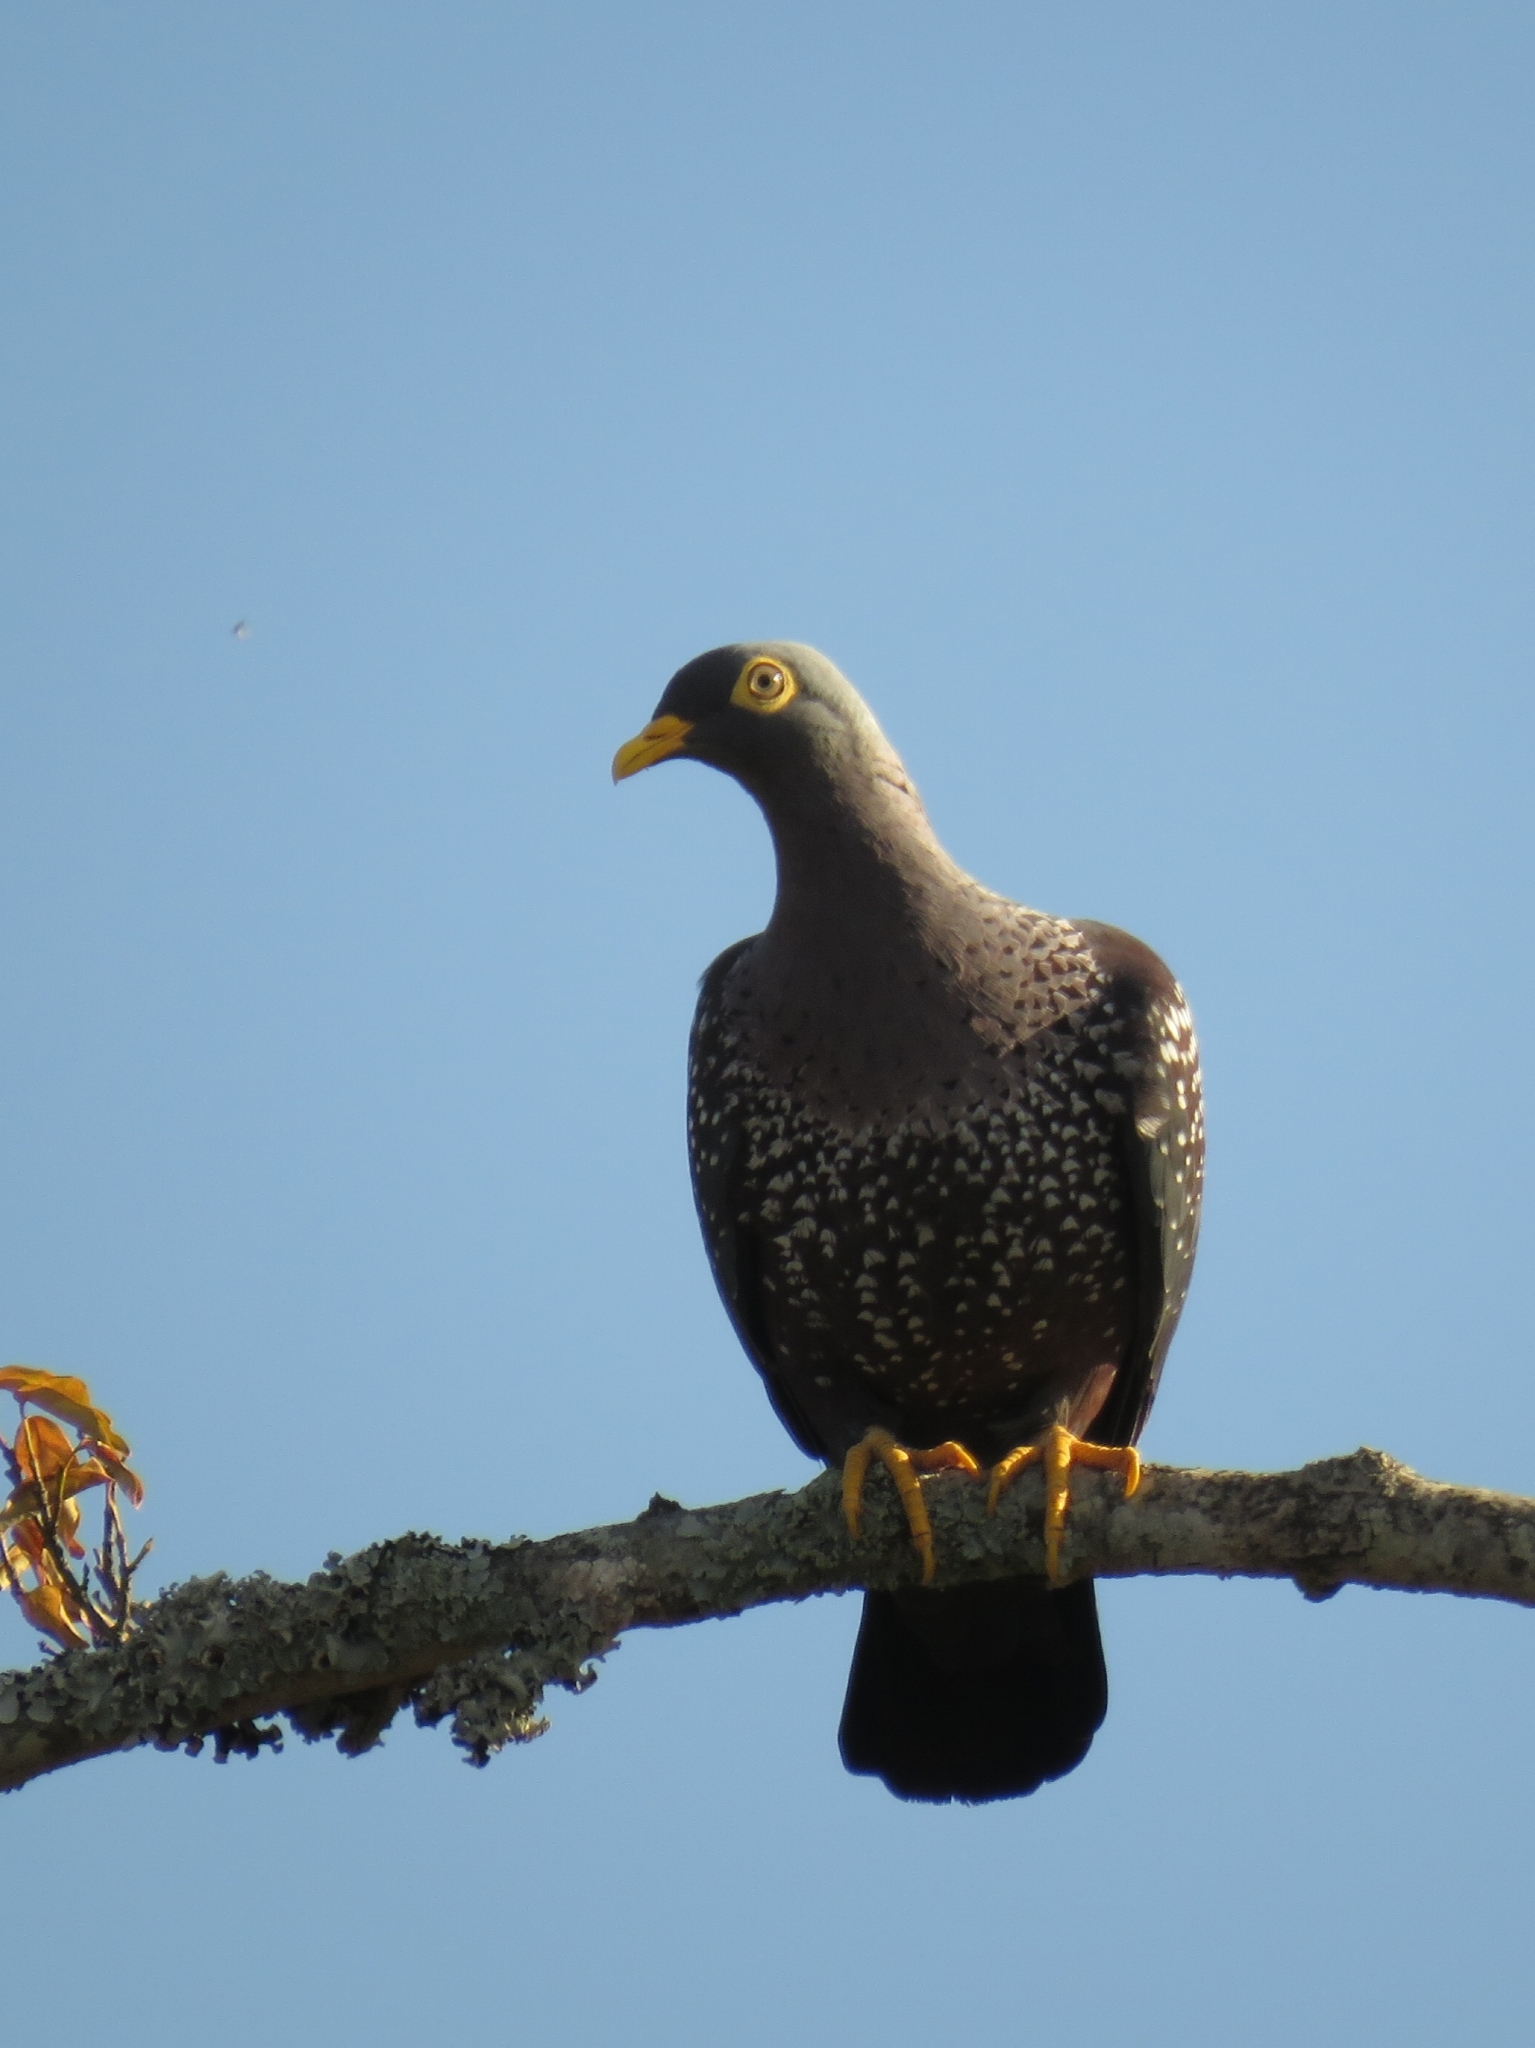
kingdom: Animalia
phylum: Chordata
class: Aves
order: Columbiformes
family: Columbidae
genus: Columba
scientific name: Columba arquatrix
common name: African olive pigeon
